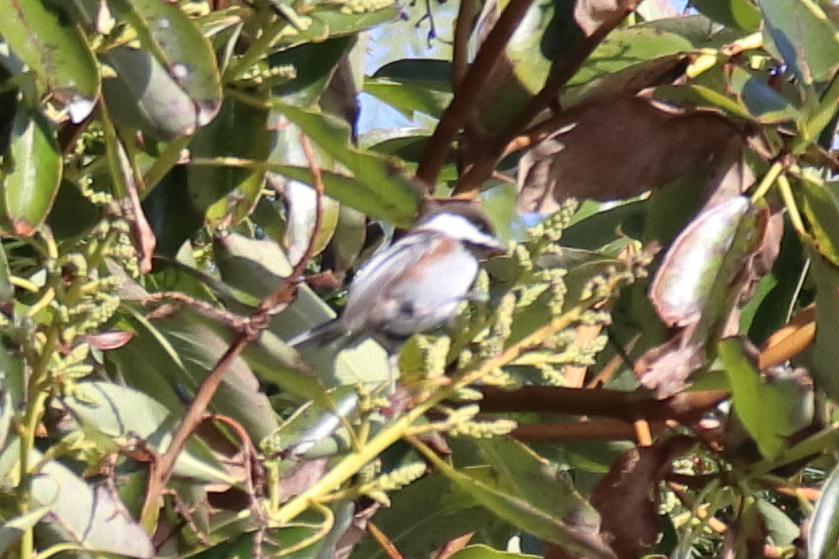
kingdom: Animalia
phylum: Chordata
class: Aves
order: Passeriformes
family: Paridae
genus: Poecile
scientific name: Poecile rufescens
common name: Chestnut-backed chickadee
